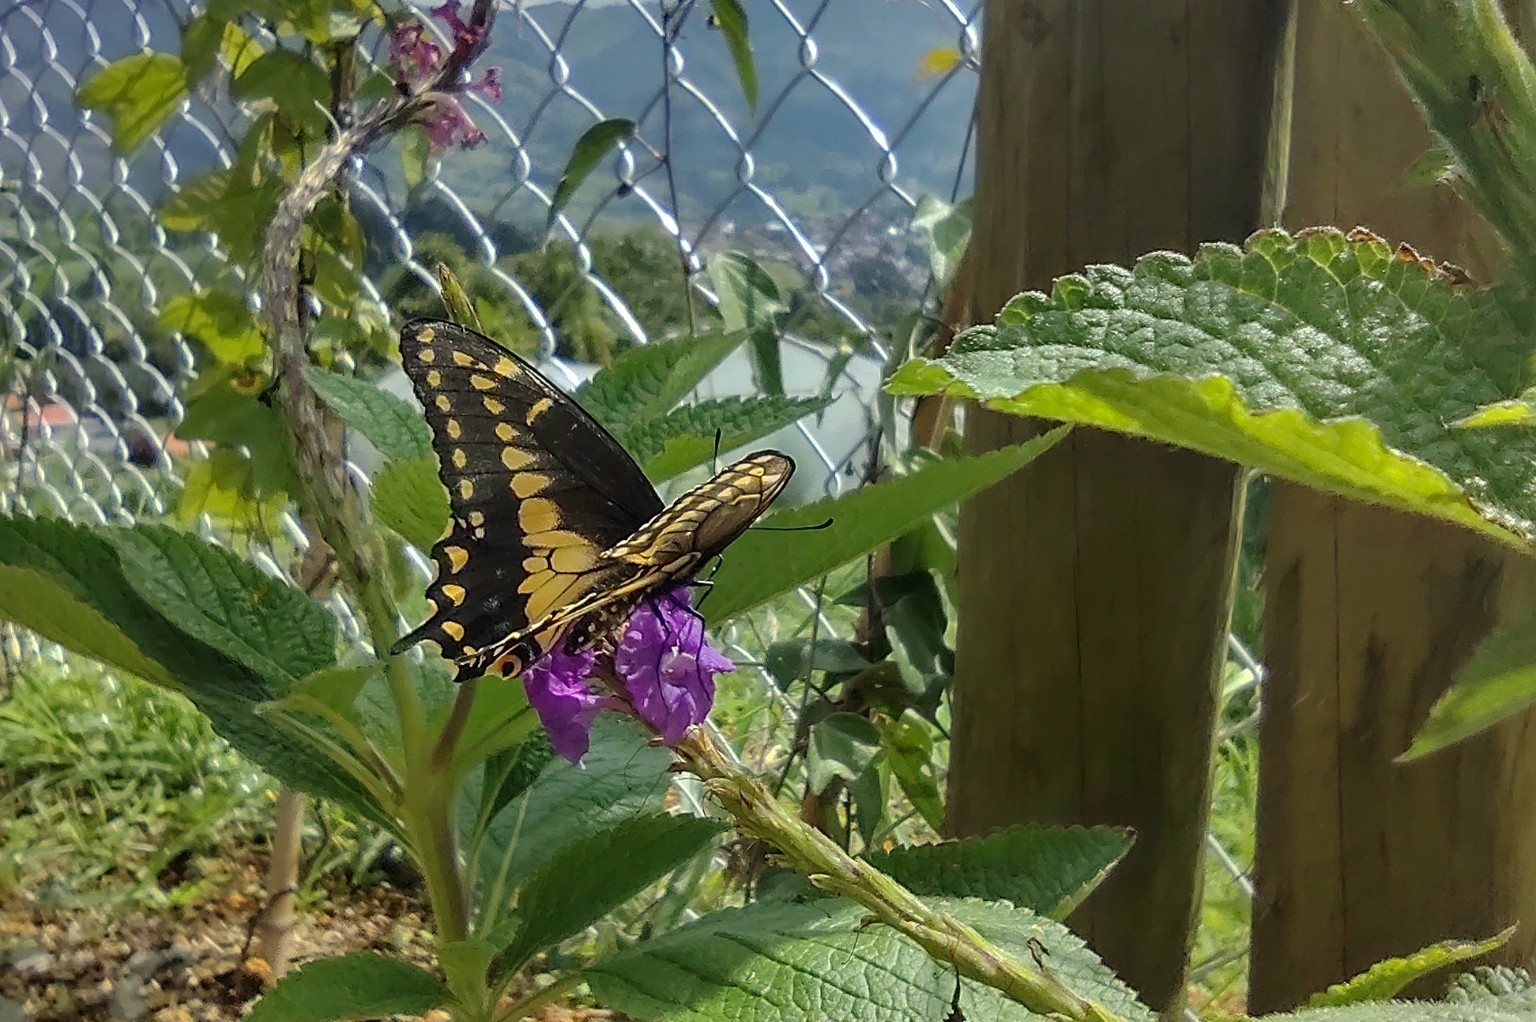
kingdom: Animalia
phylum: Arthropoda
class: Insecta
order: Lepidoptera
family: Papilionidae
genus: Papilio
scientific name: Papilio polyxenes
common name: Black swallowtail
